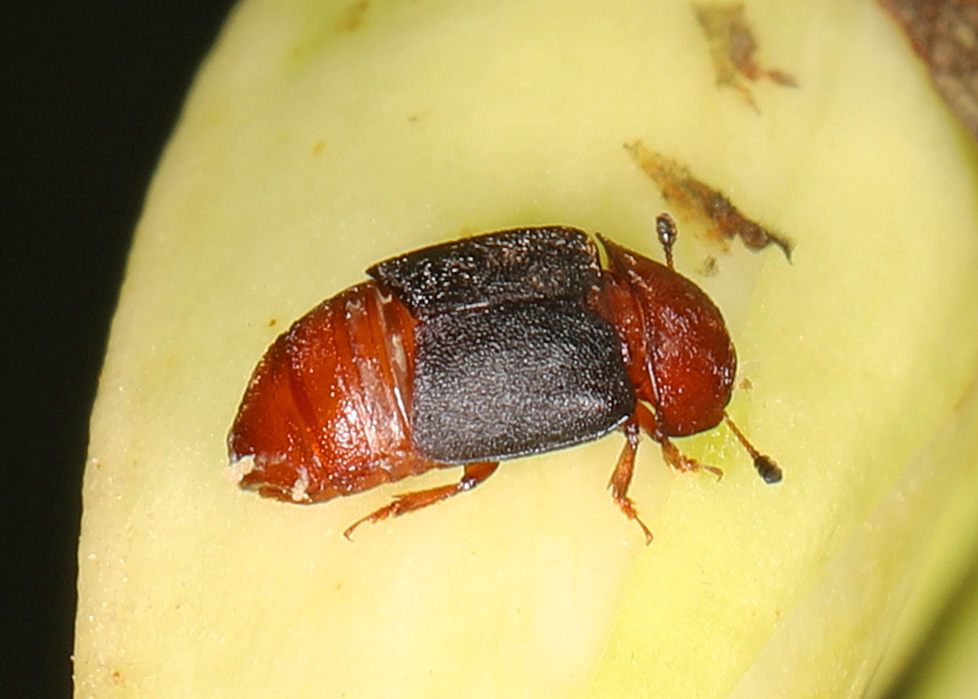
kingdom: Animalia
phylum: Arthropoda
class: Insecta
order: Coleoptera
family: Nitidulidae
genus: Carpophilus
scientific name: Carpophilus
